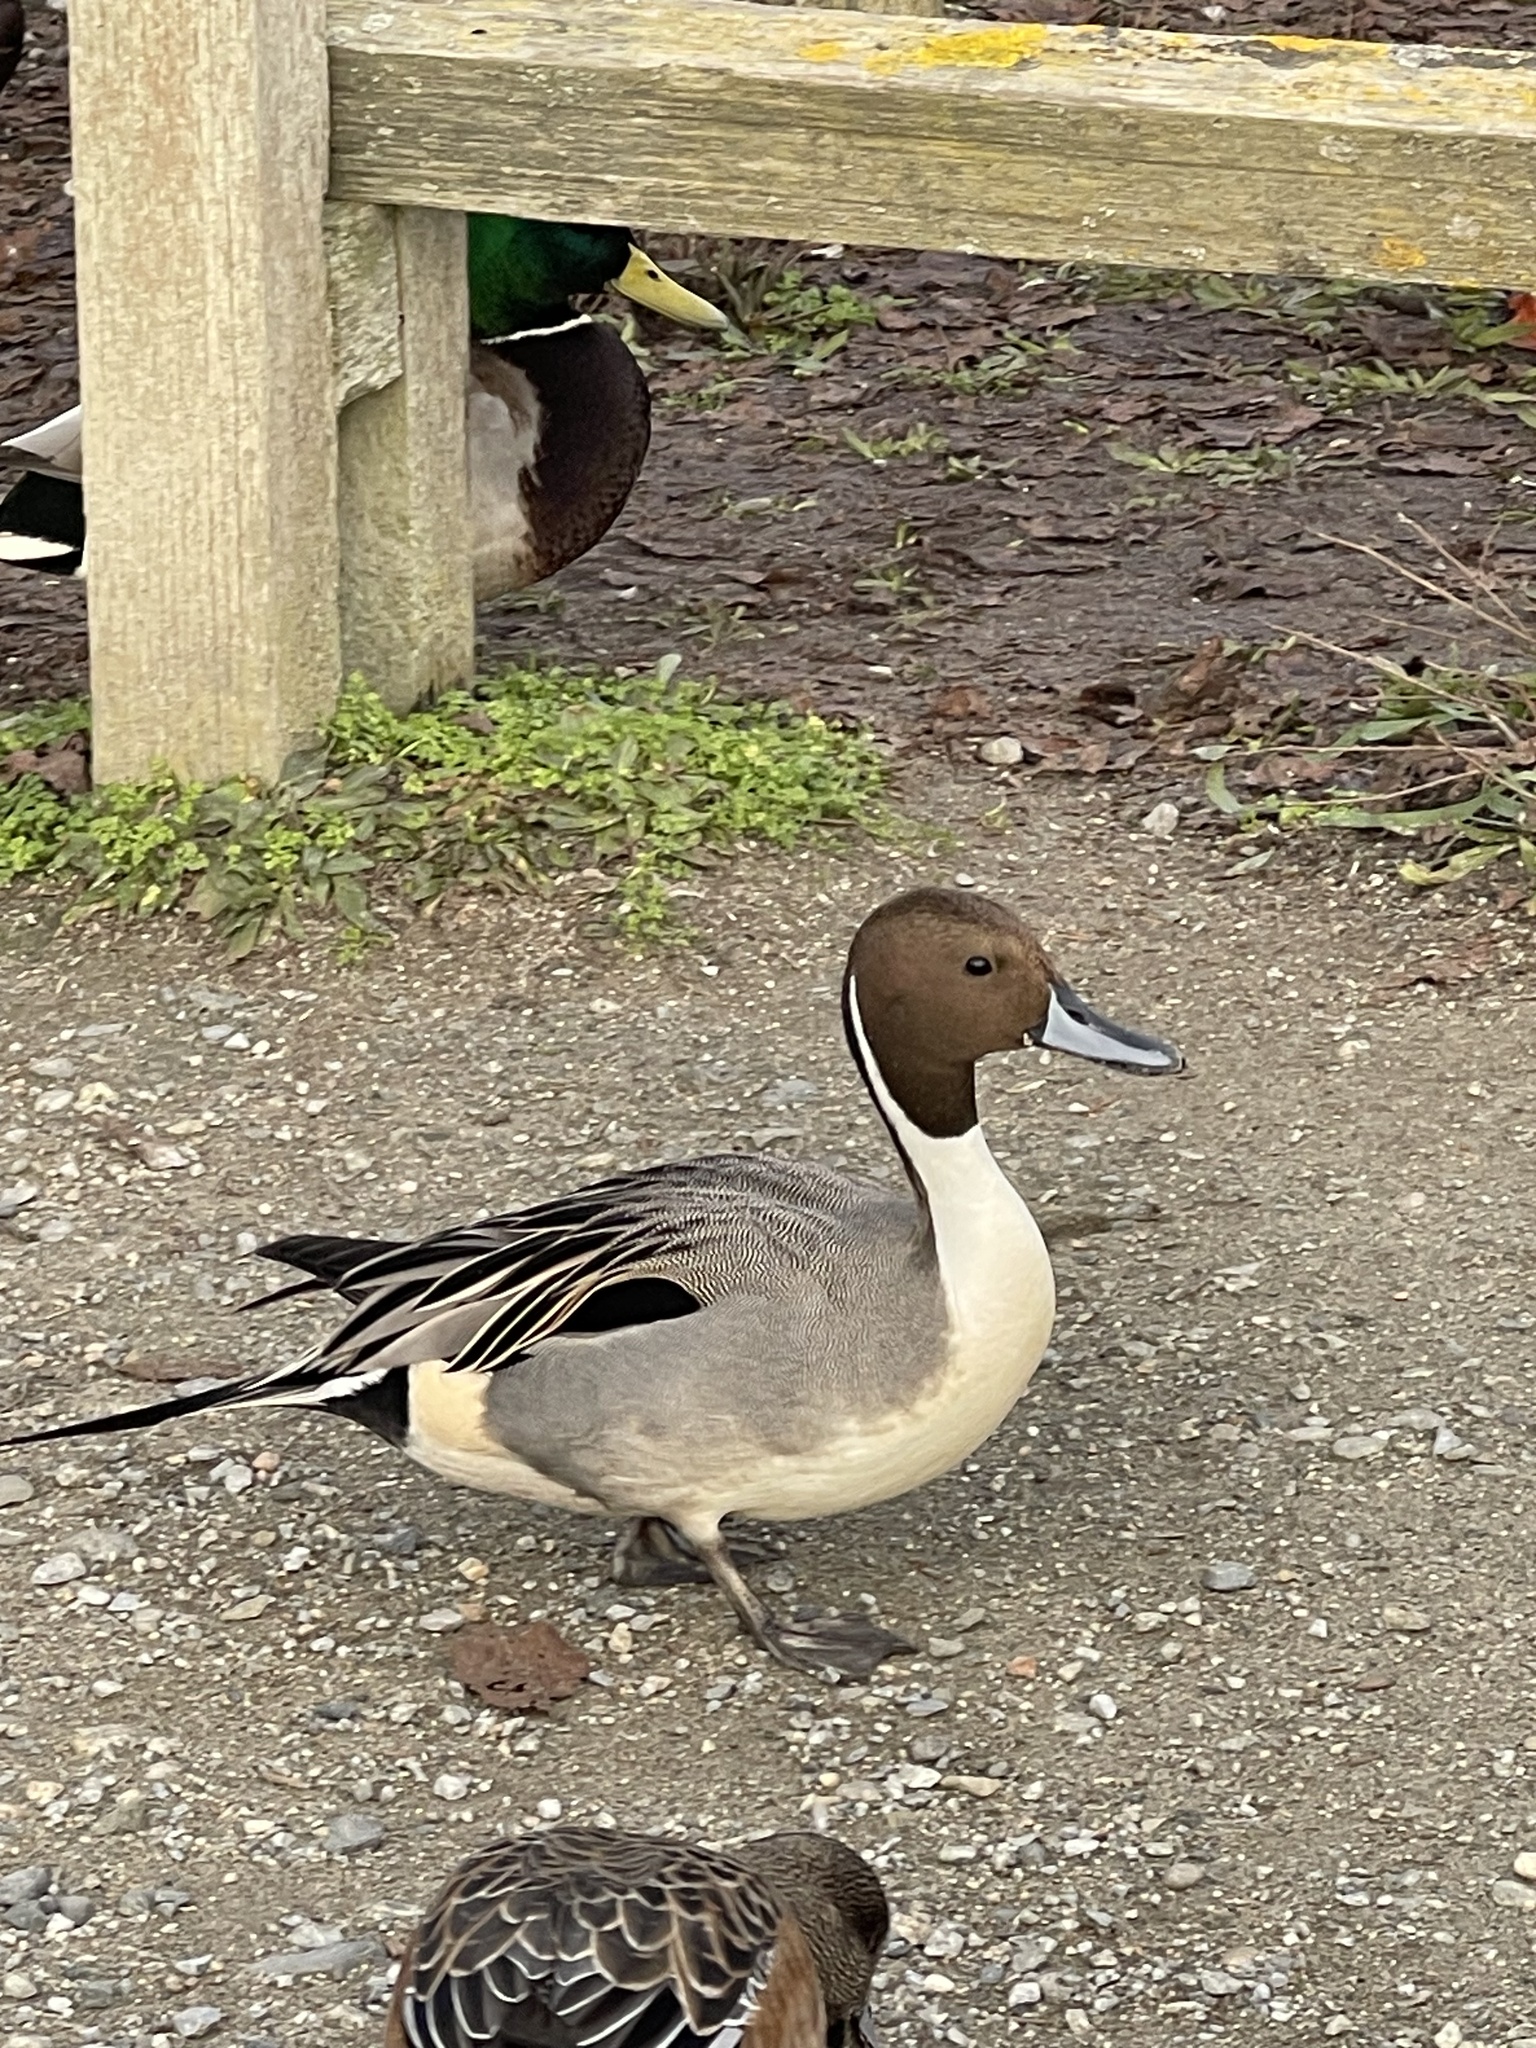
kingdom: Animalia
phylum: Chordata
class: Aves
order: Anseriformes
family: Anatidae
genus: Anas
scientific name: Anas acuta
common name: Northern pintail
